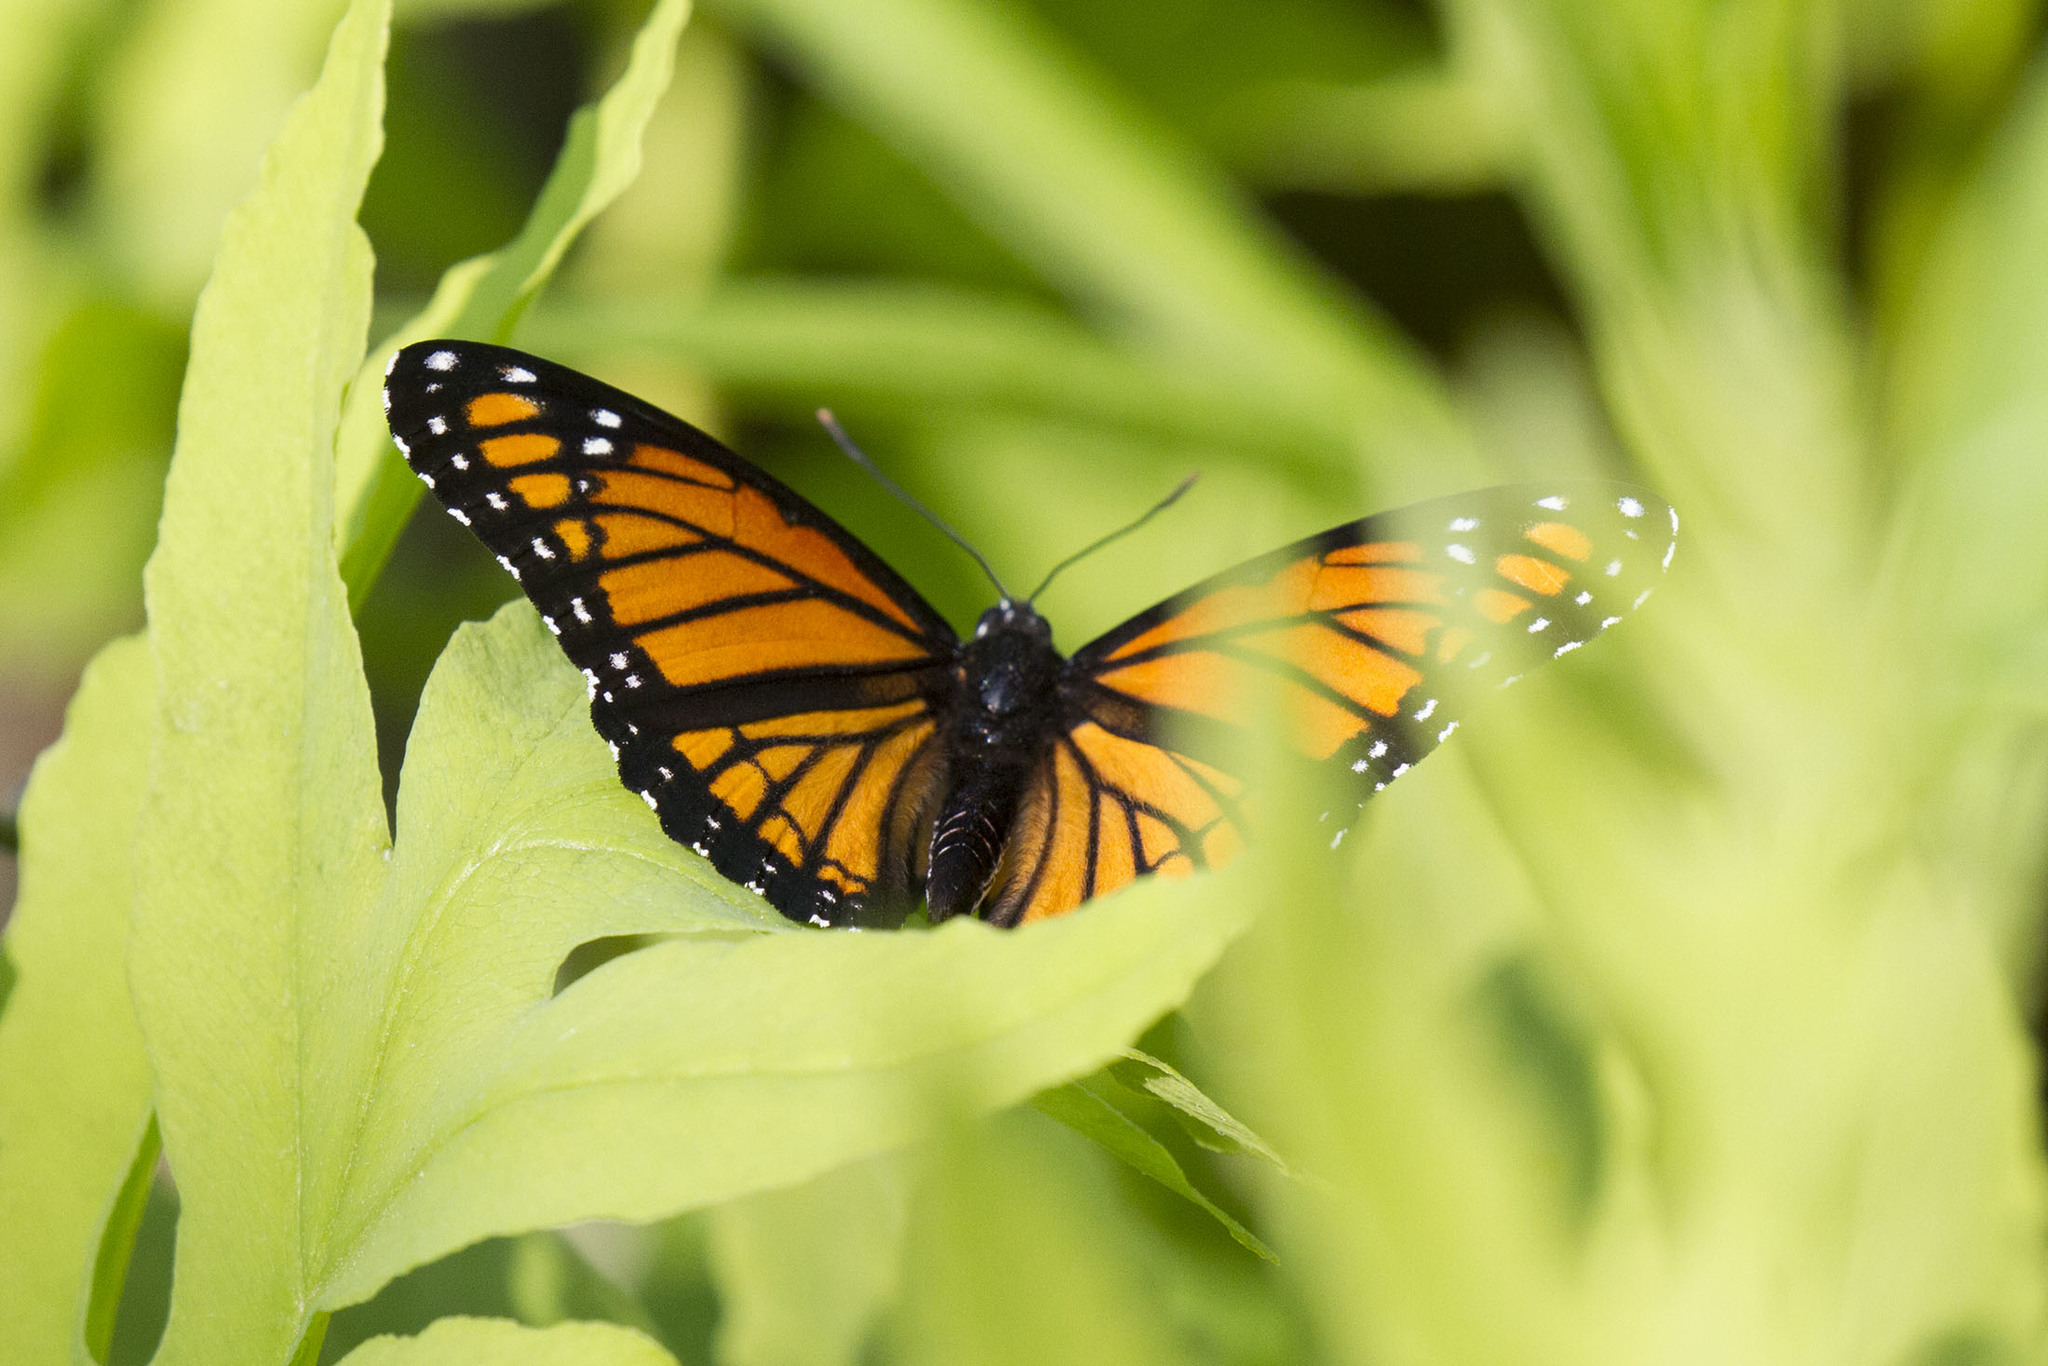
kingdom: Animalia
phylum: Arthropoda
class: Insecta
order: Lepidoptera
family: Nymphalidae
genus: Limenitis
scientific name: Limenitis archippus
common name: Viceroy
